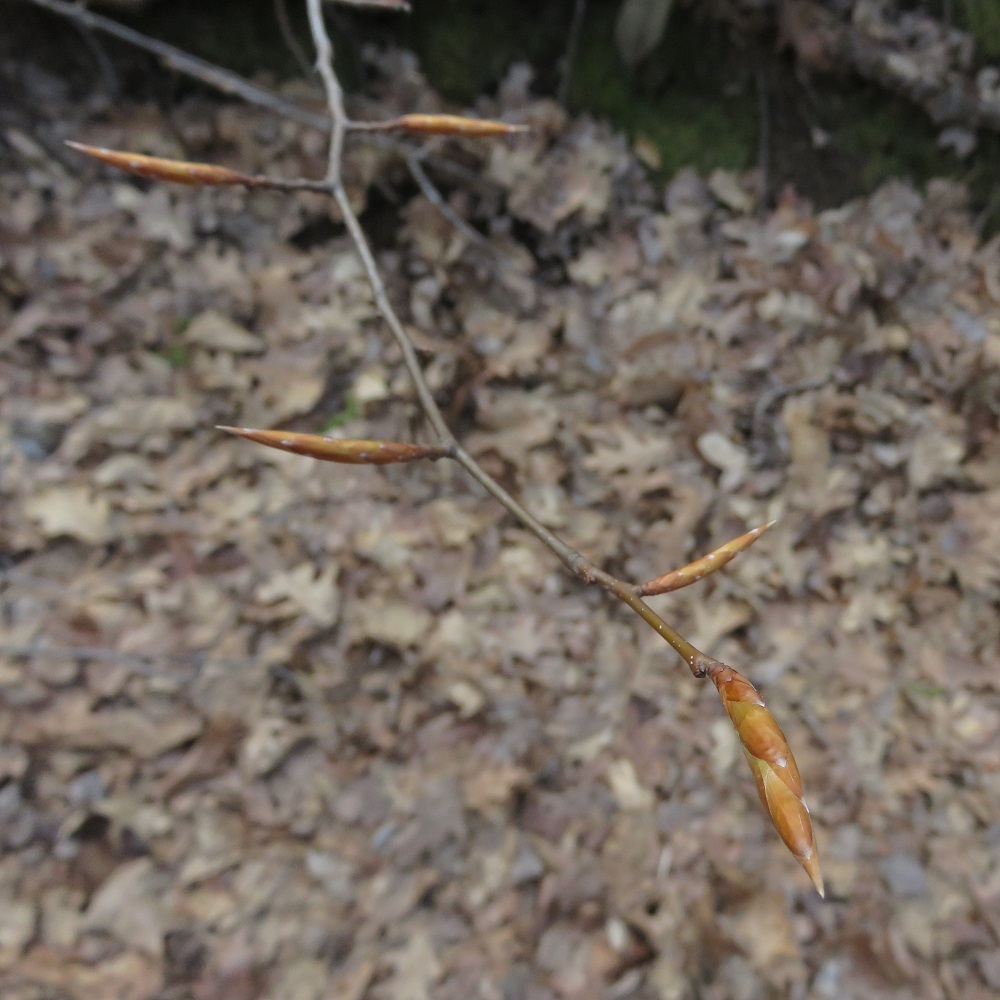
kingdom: Plantae
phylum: Tracheophyta
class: Magnoliopsida
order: Fagales
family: Fagaceae
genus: Fagus
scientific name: Fagus grandifolia
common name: American beech
